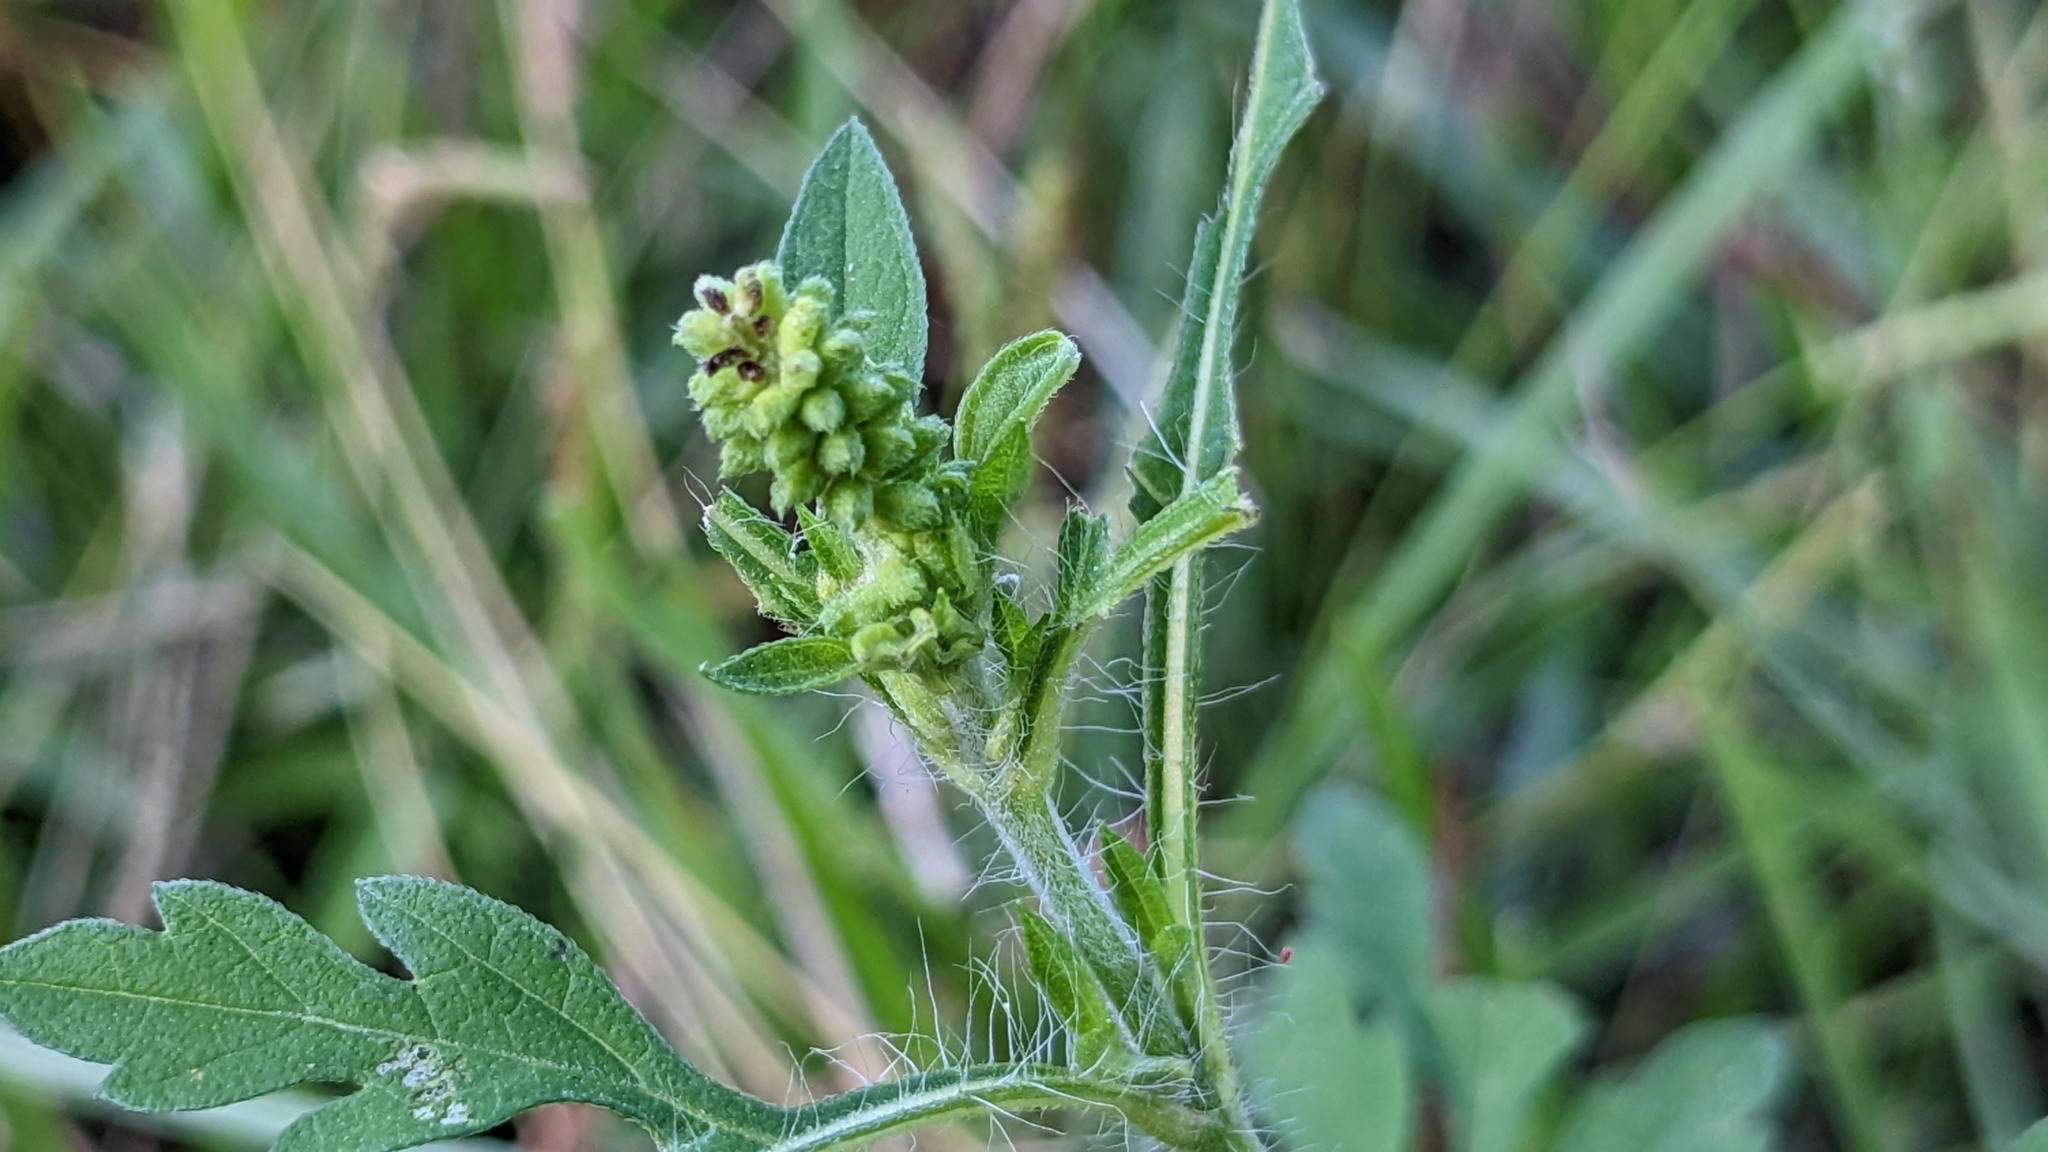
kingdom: Plantae
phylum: Tracheophyta
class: Magnoliopsida
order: Asterales
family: Asteraceae
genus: Ambrosia
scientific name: Ambrosia artemisiifolia
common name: Annual ragweed
